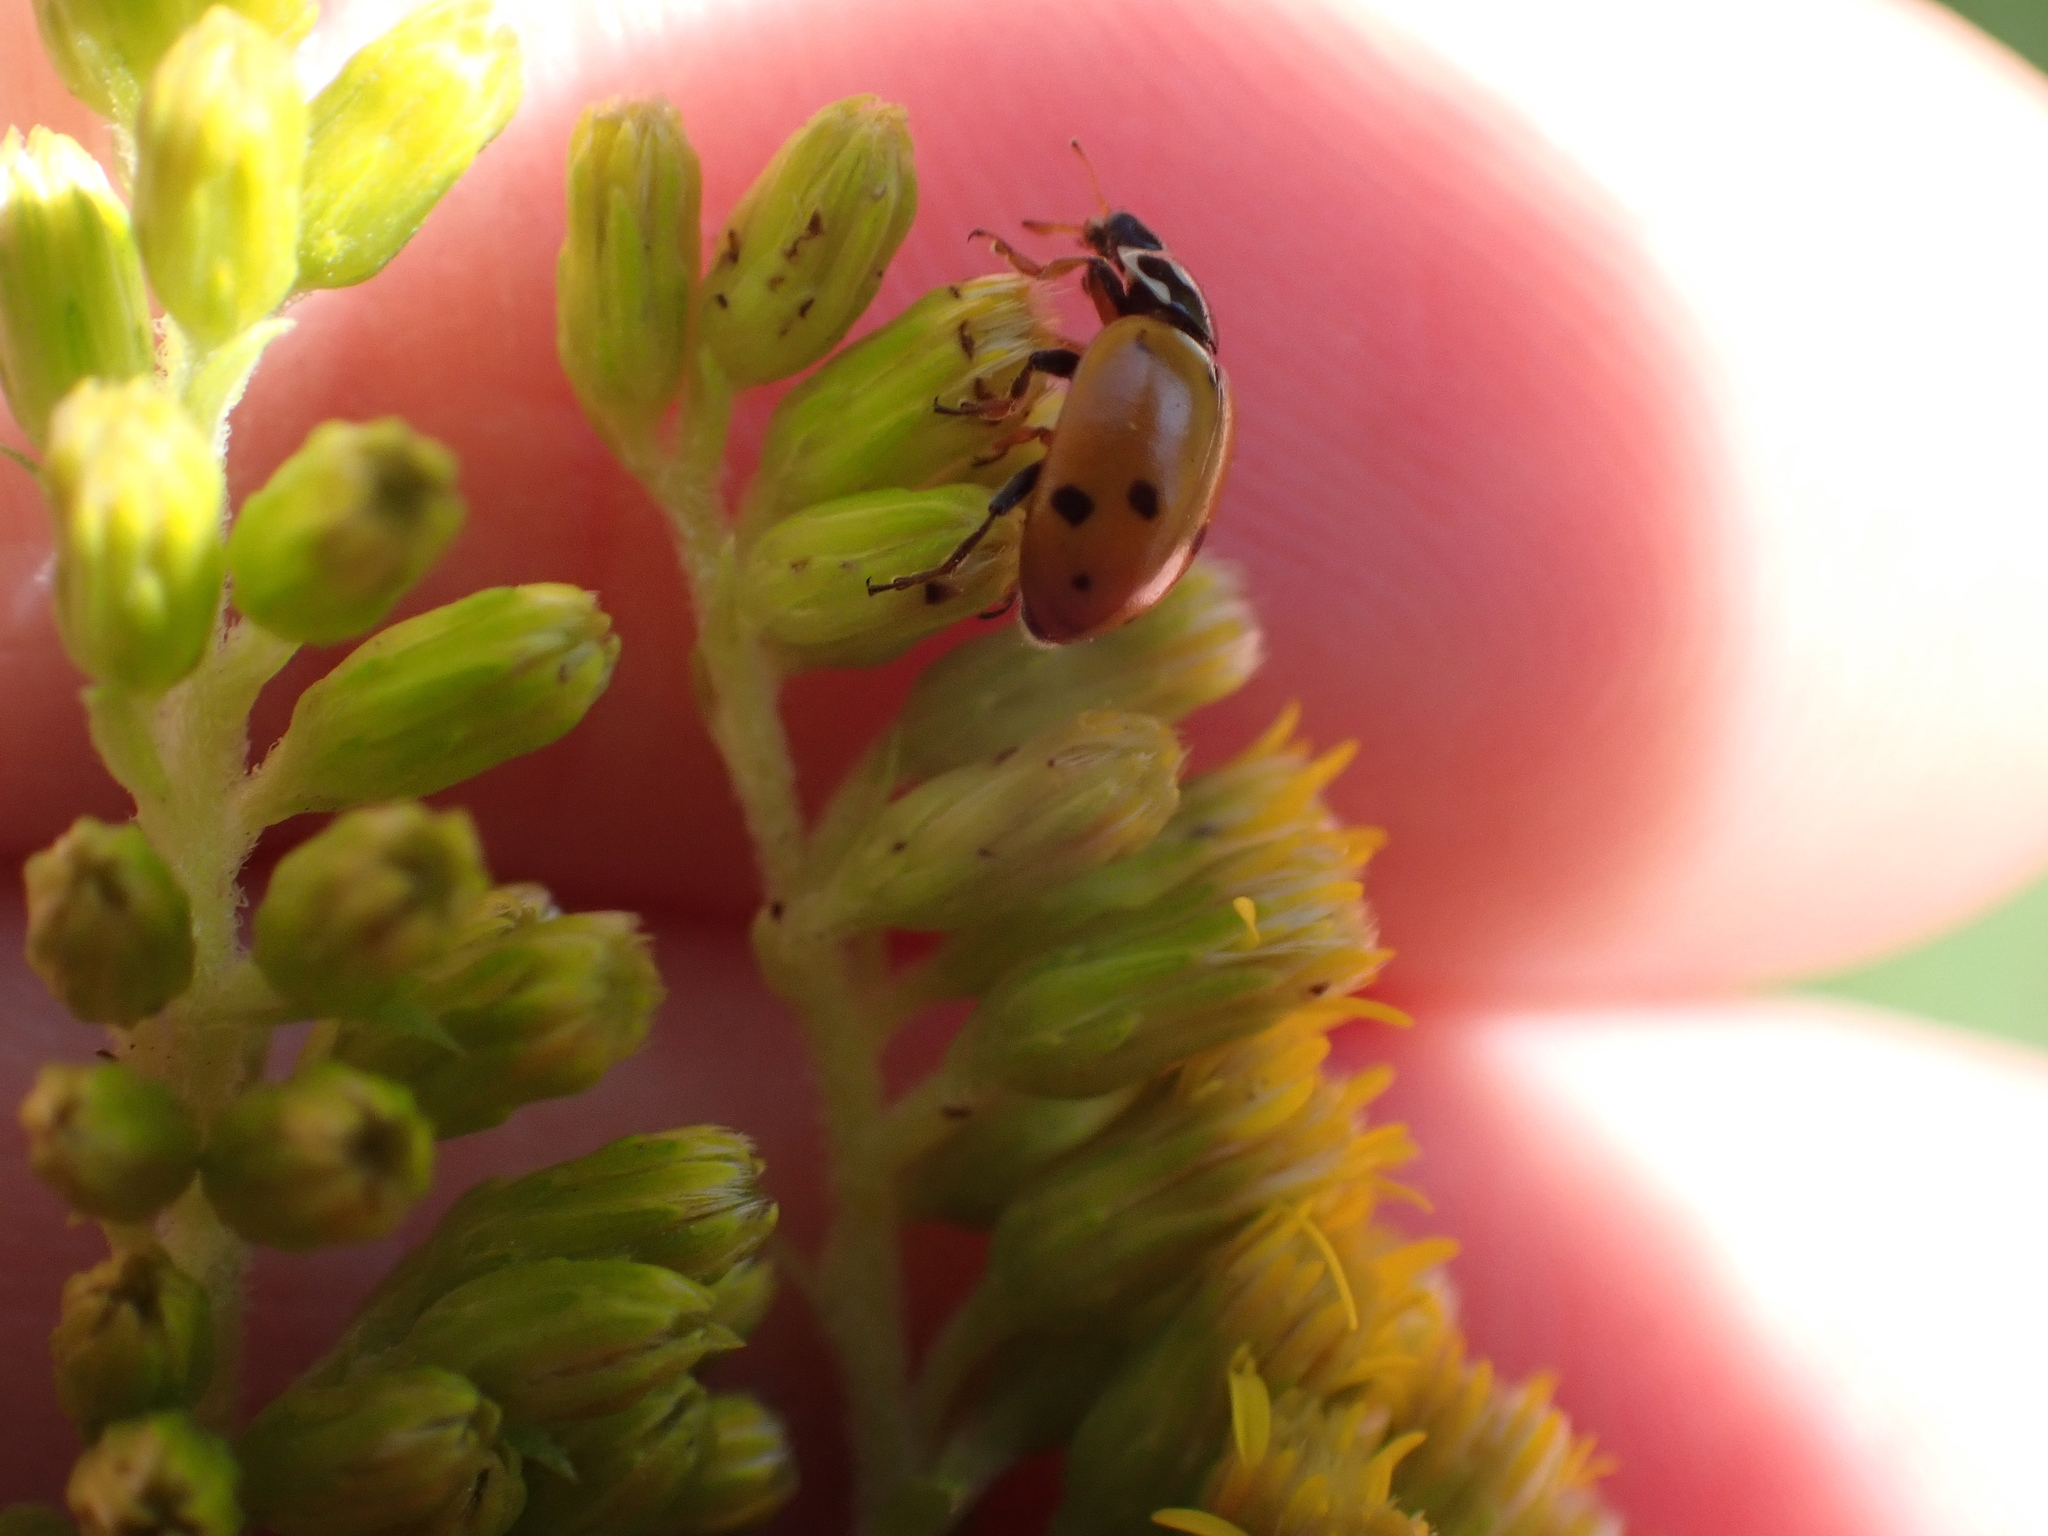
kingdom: Animalia
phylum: Arthropoda
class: Insecta
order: Coleoptera
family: Coccinellidae
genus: Hippodamia
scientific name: Hippodamia variegata
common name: Ladybird beetle
